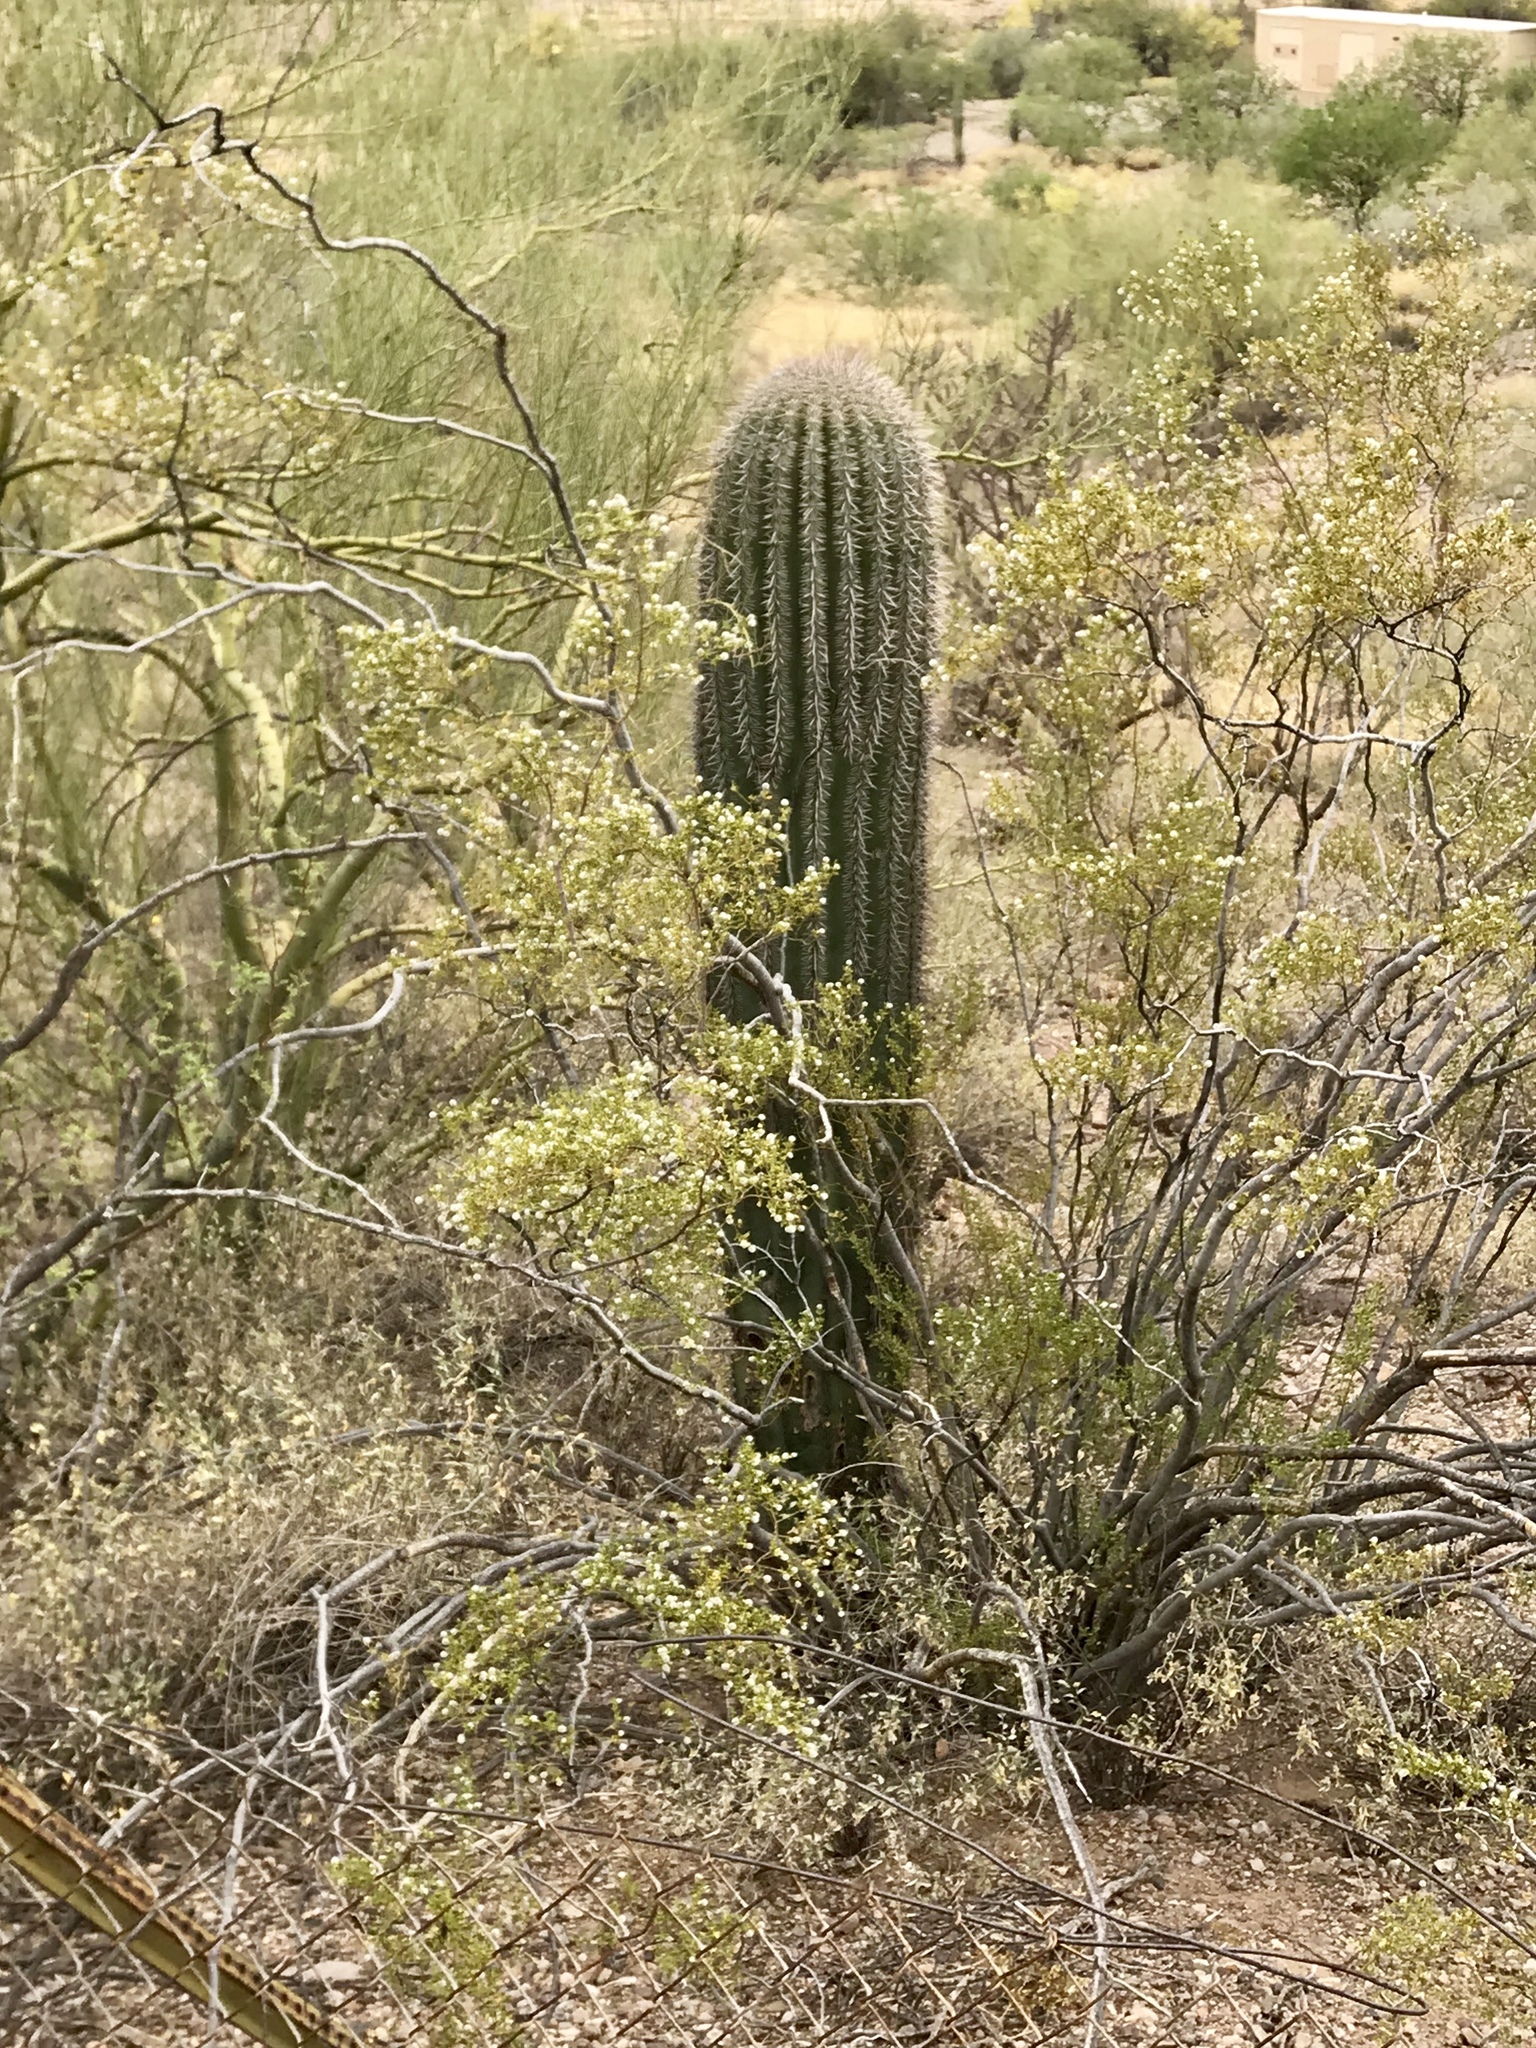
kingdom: Plantae
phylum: Tracheophyta
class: Magnoliopsida
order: Caryophyllales
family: Cactaceae
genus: Carnegiea
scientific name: Carnegiea gigantea
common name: Saguaro
